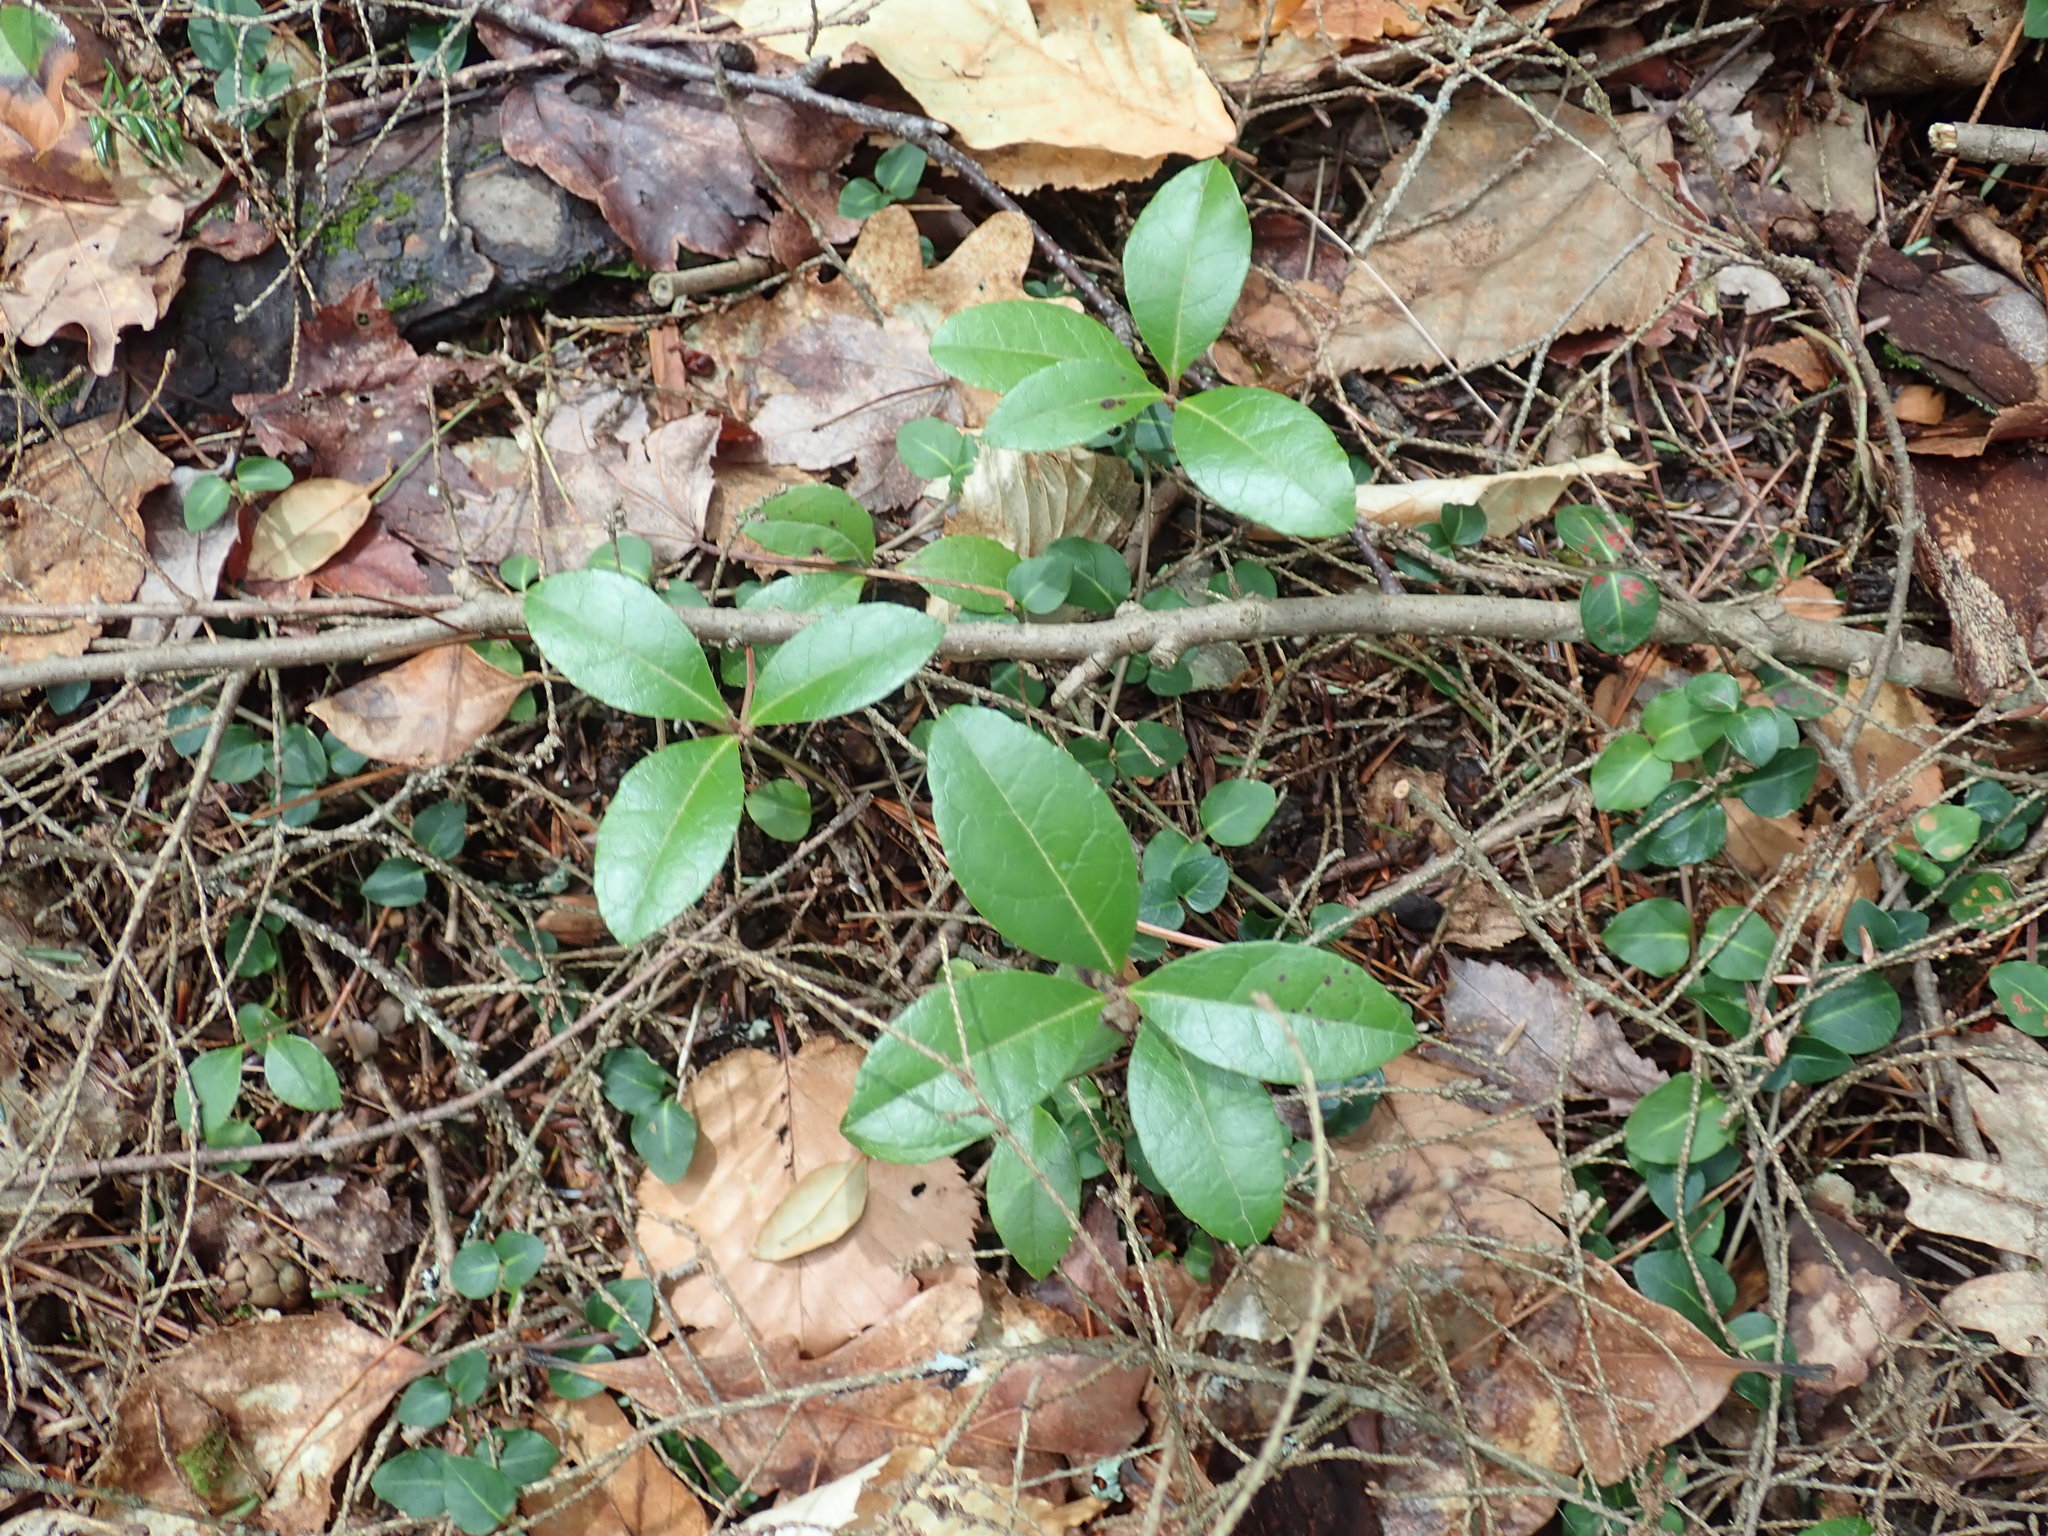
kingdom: Plantae
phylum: Tracheophyta
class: Magnoliopsida
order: Ericales
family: Ericaceae
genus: Gaultheria
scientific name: Gaultheria procumbens
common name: Checkerberry
